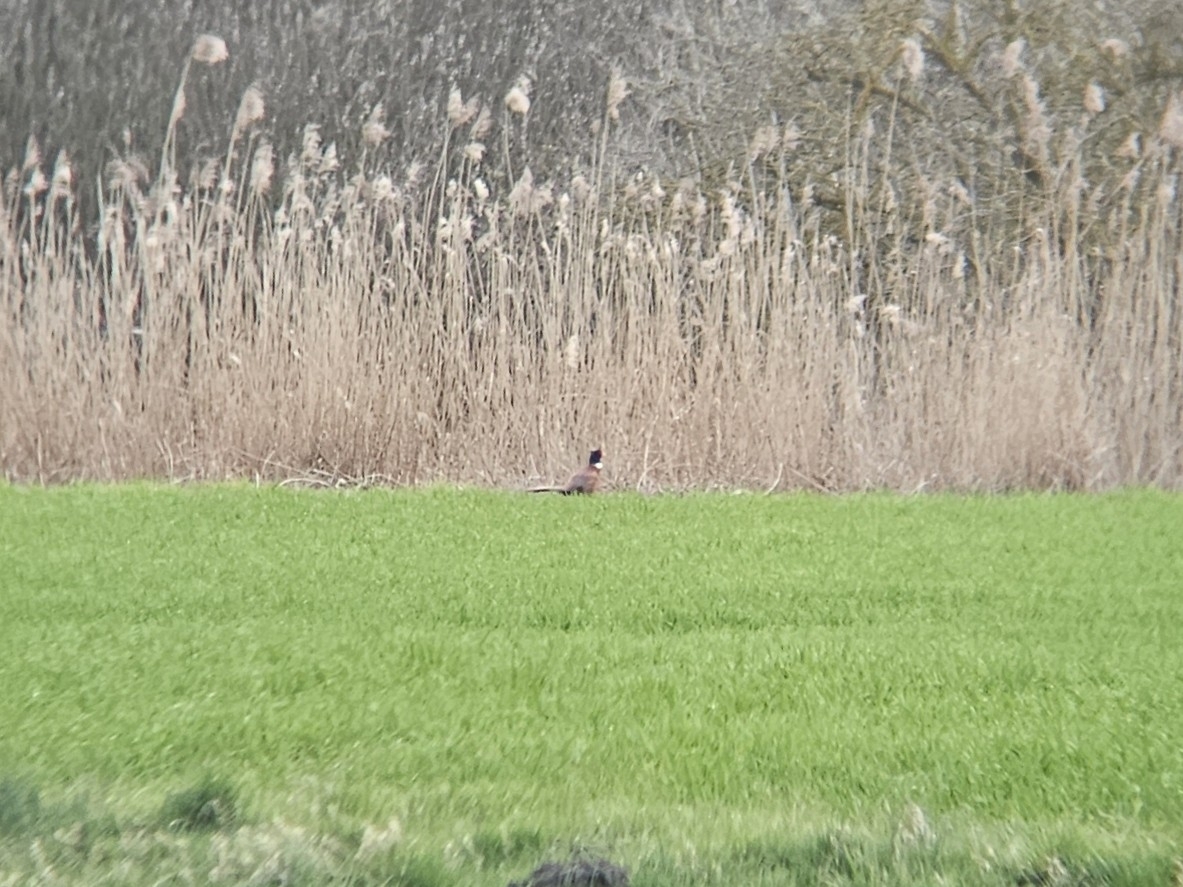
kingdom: Animalia
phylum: Chordata
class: Aves
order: Galliformes
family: Phasianidae
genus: Phasianus
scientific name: Phasianus colchicus
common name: Common pheasant
